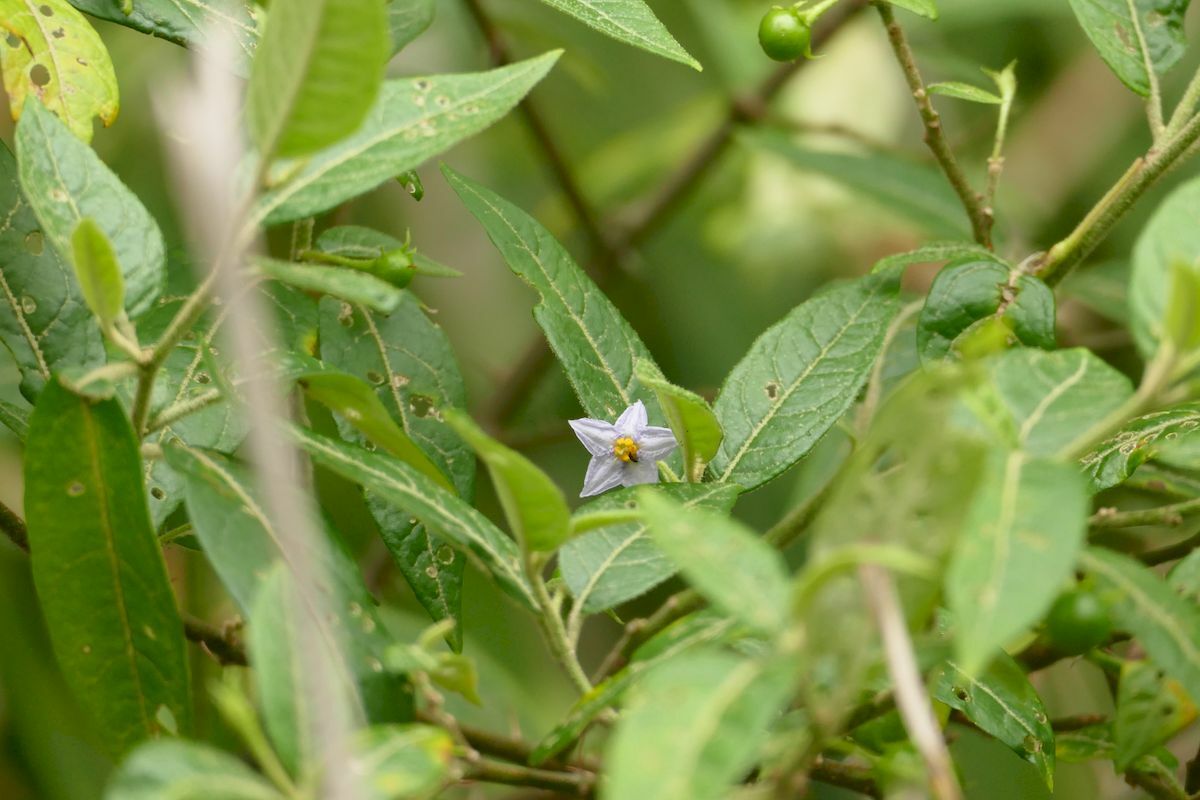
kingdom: Plantae
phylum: Tracheophyta
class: Magnoliopsida
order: Solanales
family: Solanaceae
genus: Solanum
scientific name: Solanum stelligerum
